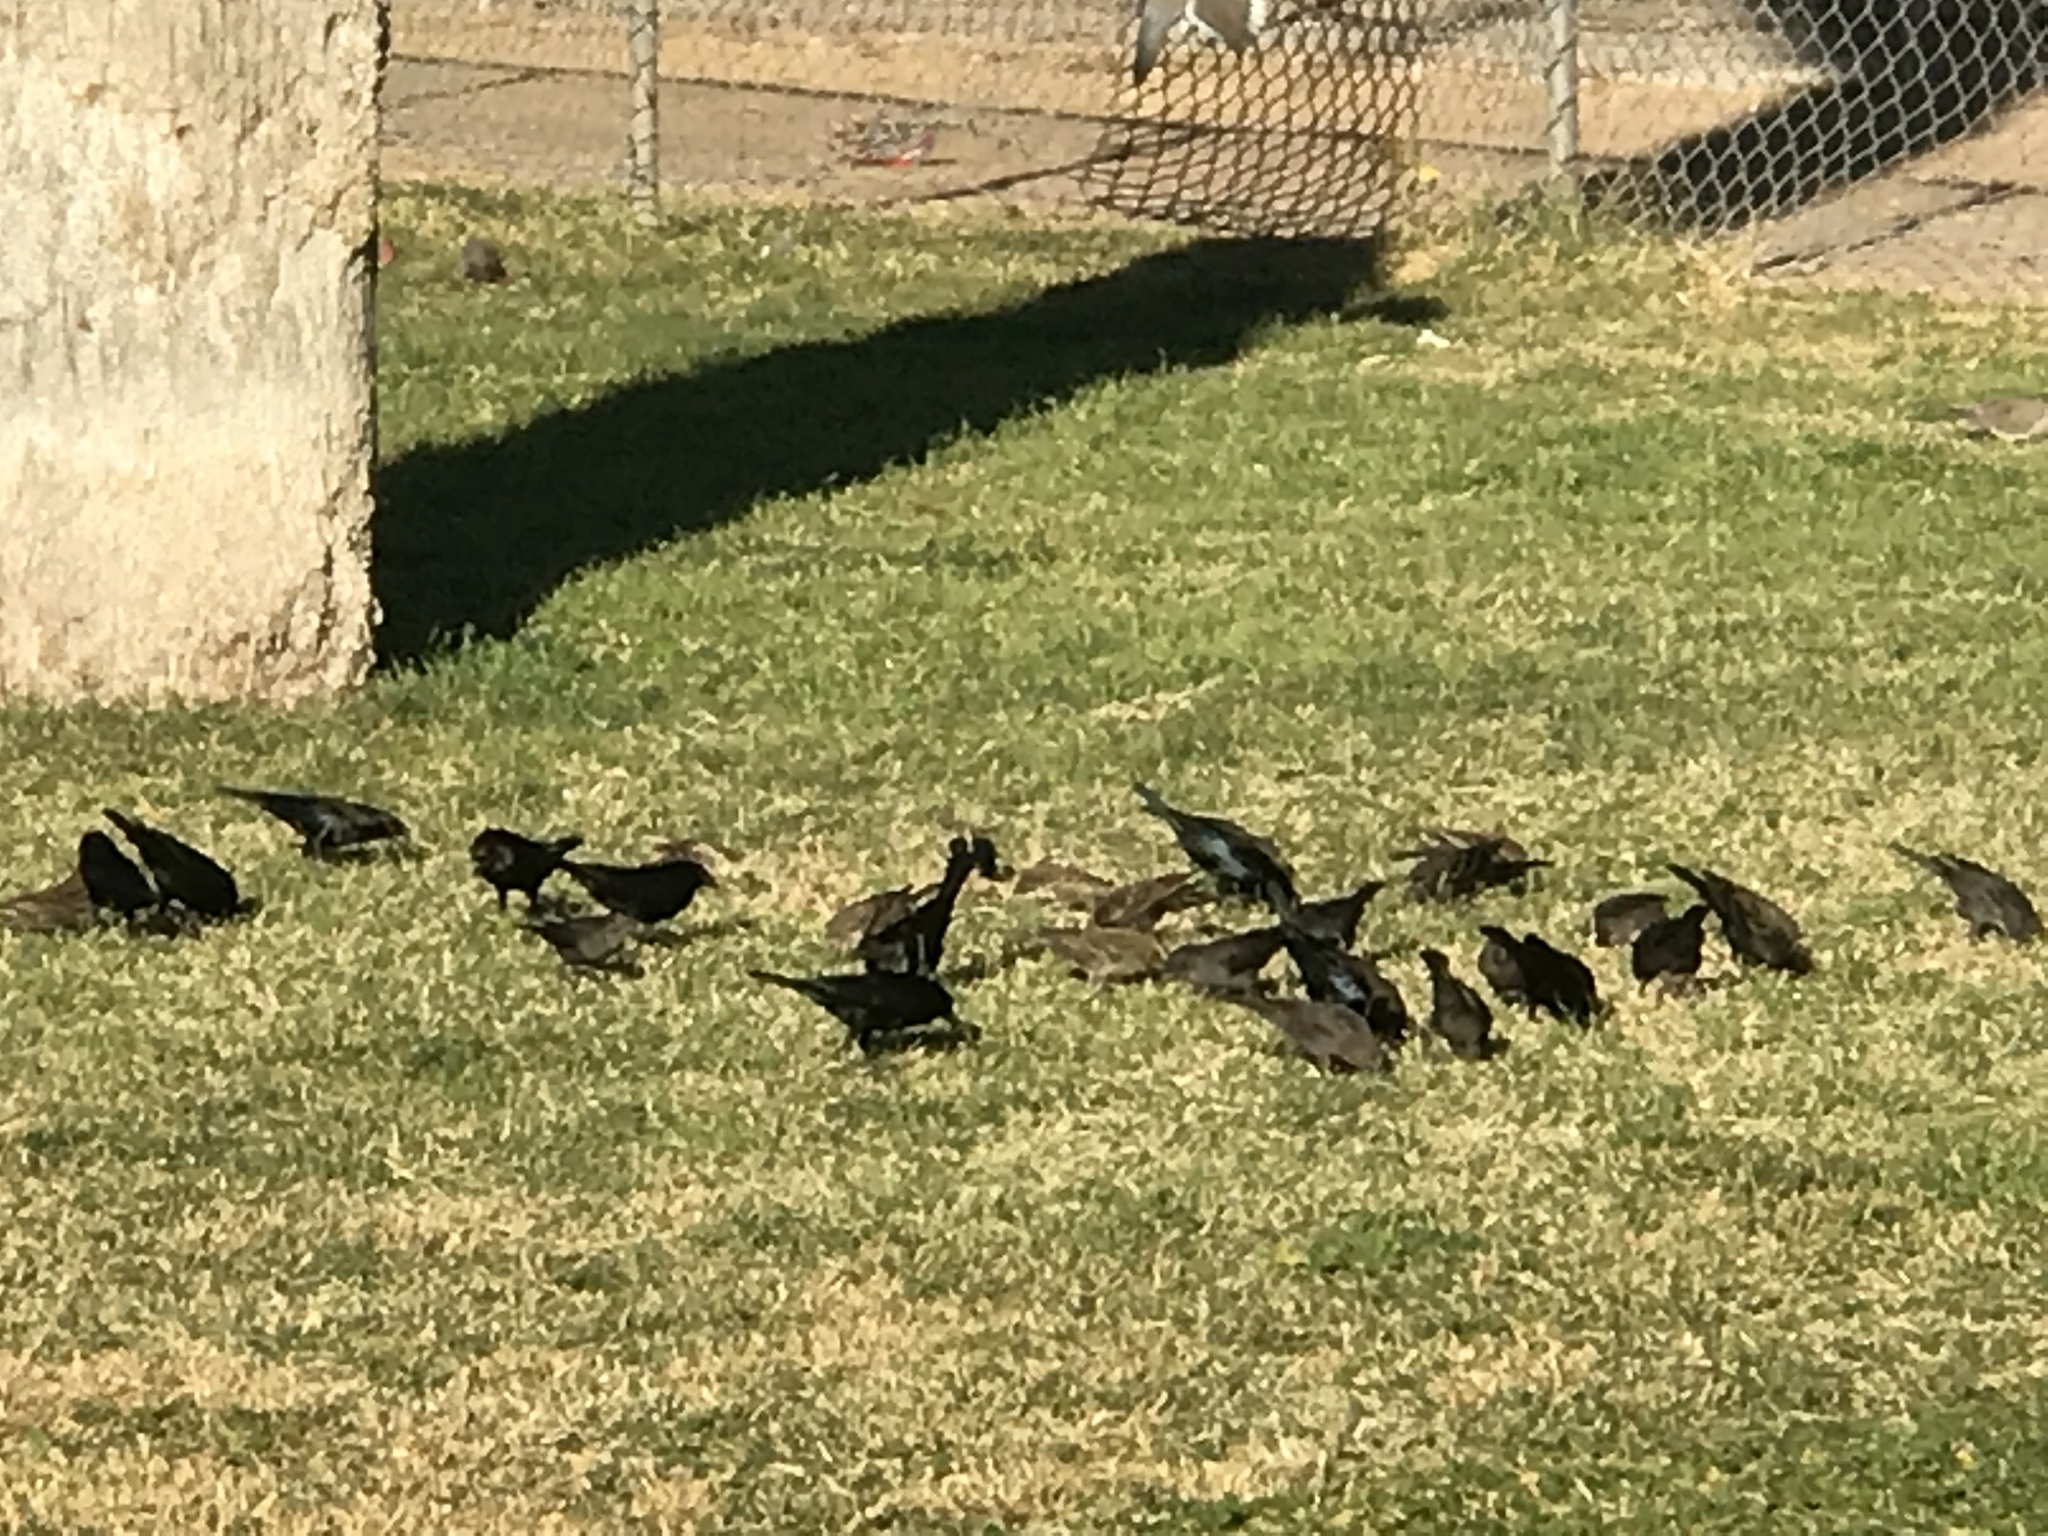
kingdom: Animalia
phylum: Chordata
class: Aves
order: Passeriformes
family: Icteridae
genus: Euphagus
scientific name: Euphagus cyanocephalus
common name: Brewer's blackbird
